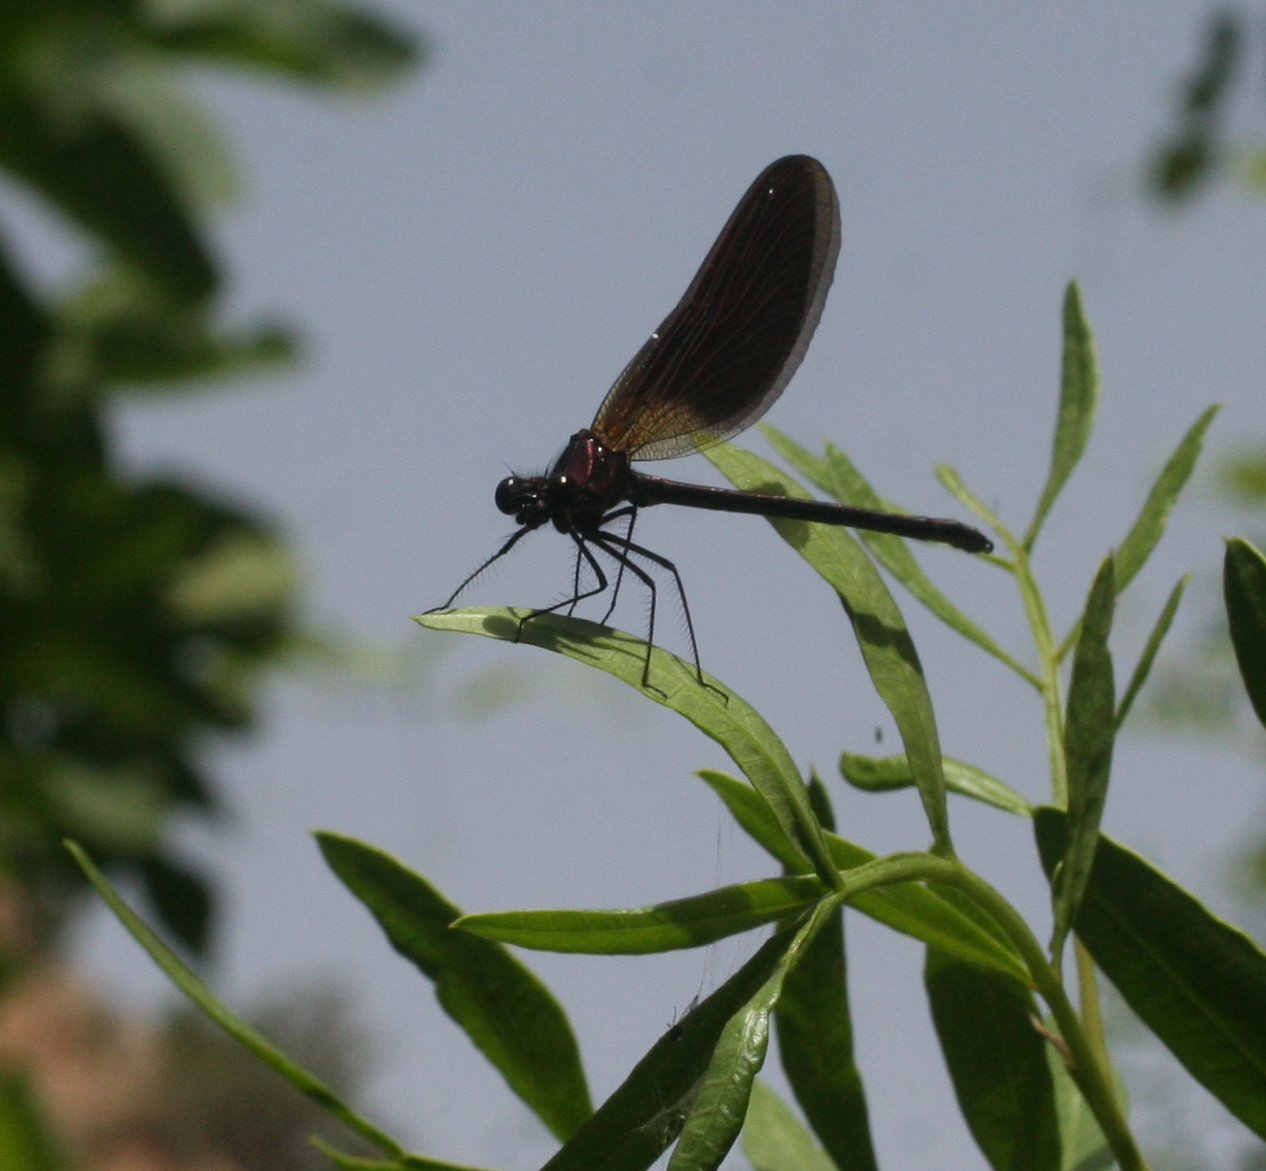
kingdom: Animalia
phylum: Arthropoda
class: Insecta
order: Odonata
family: Calopterygidae
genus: Calopteryx
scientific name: Calopteryx haemorrhoidalis
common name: Copper demoiselle
